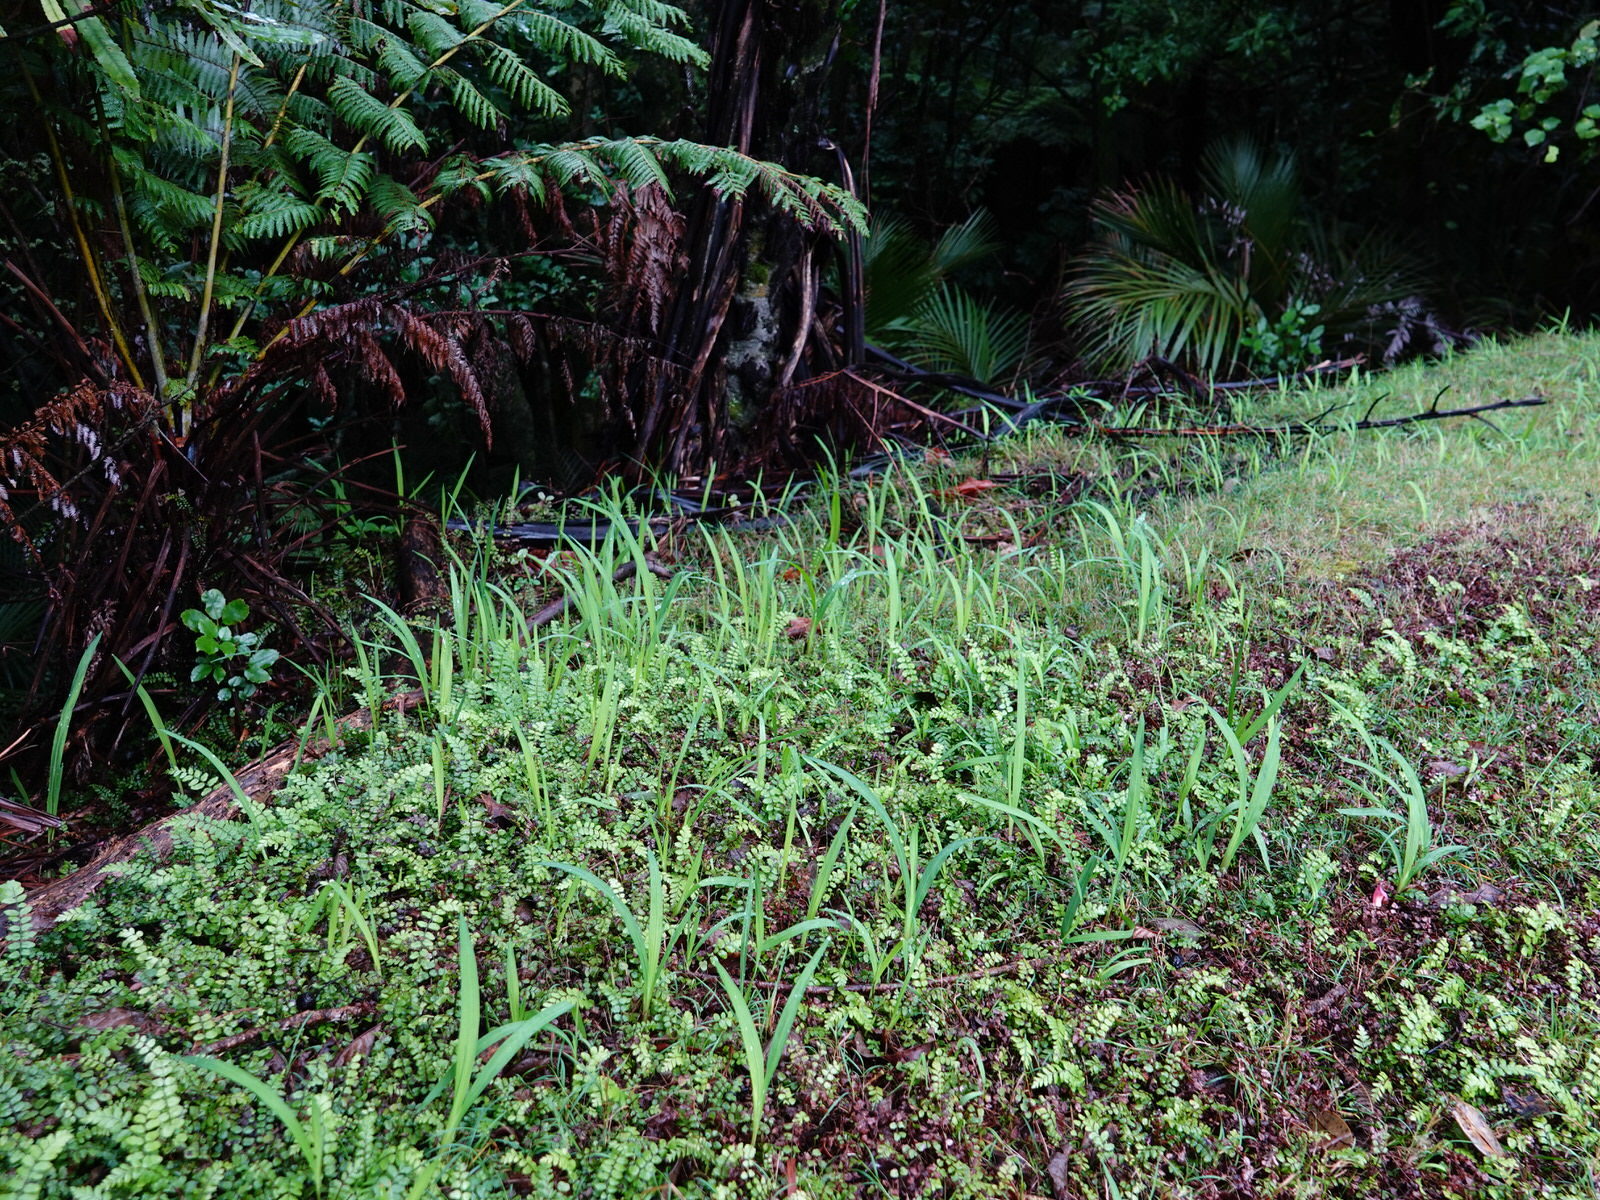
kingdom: Plantae
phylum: Tracheophyta
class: Liliopsida
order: Asparagales
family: Iridaceae
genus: Crocosmia
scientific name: Crocosmia crocosmiiflora
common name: Montbretia
